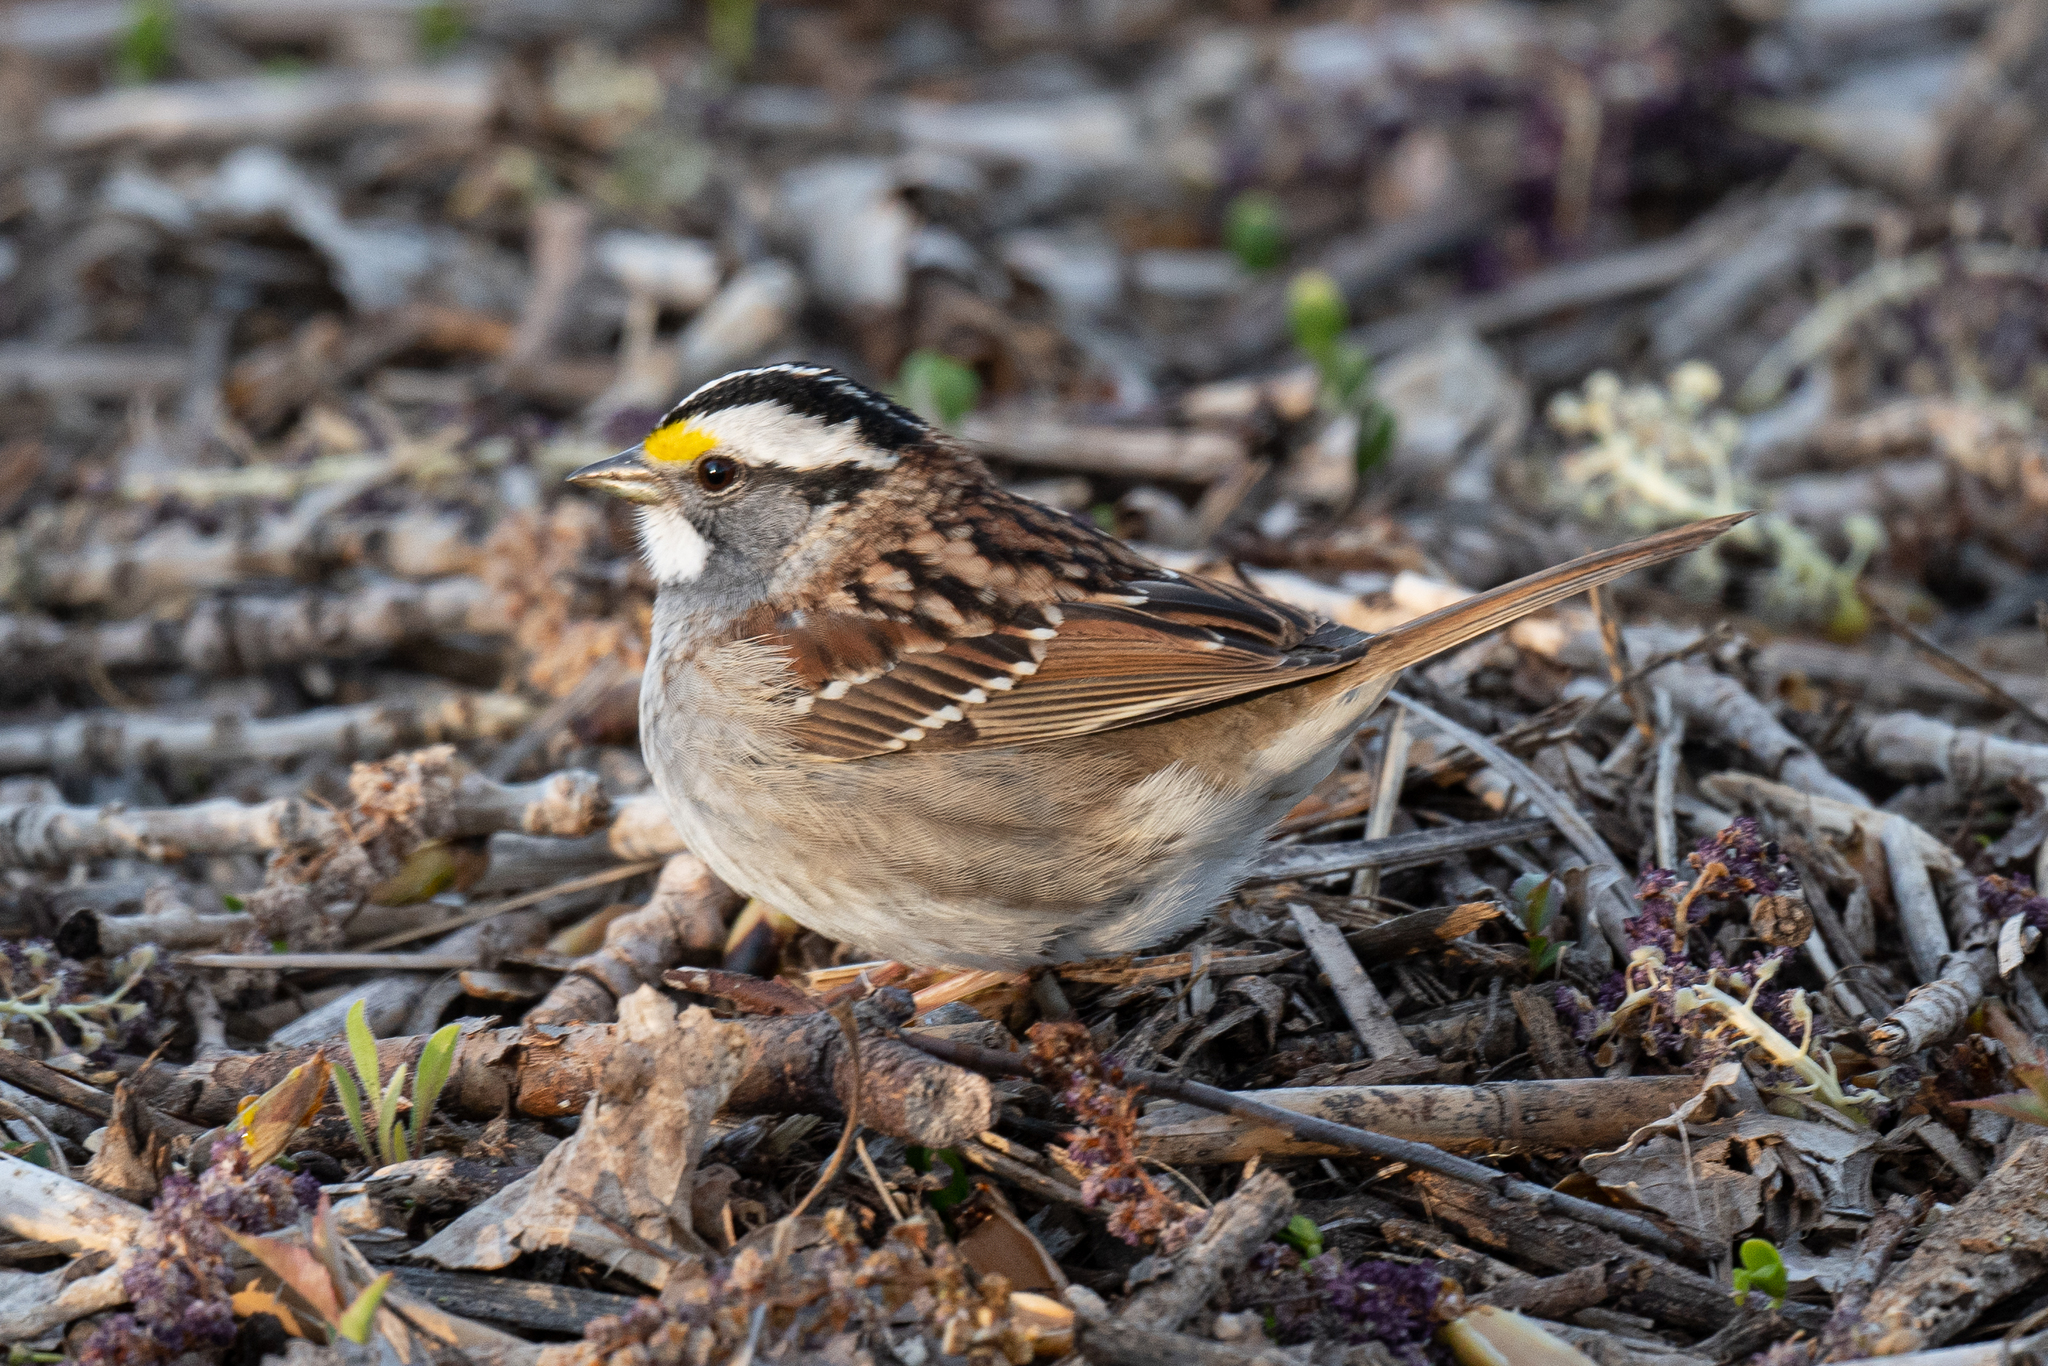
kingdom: Animalia
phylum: Chordata
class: Aves
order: Passeriformes
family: Passerellidae
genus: Zonotrichia
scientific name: Zonotrichia albicollis
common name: White-throated sparrow
